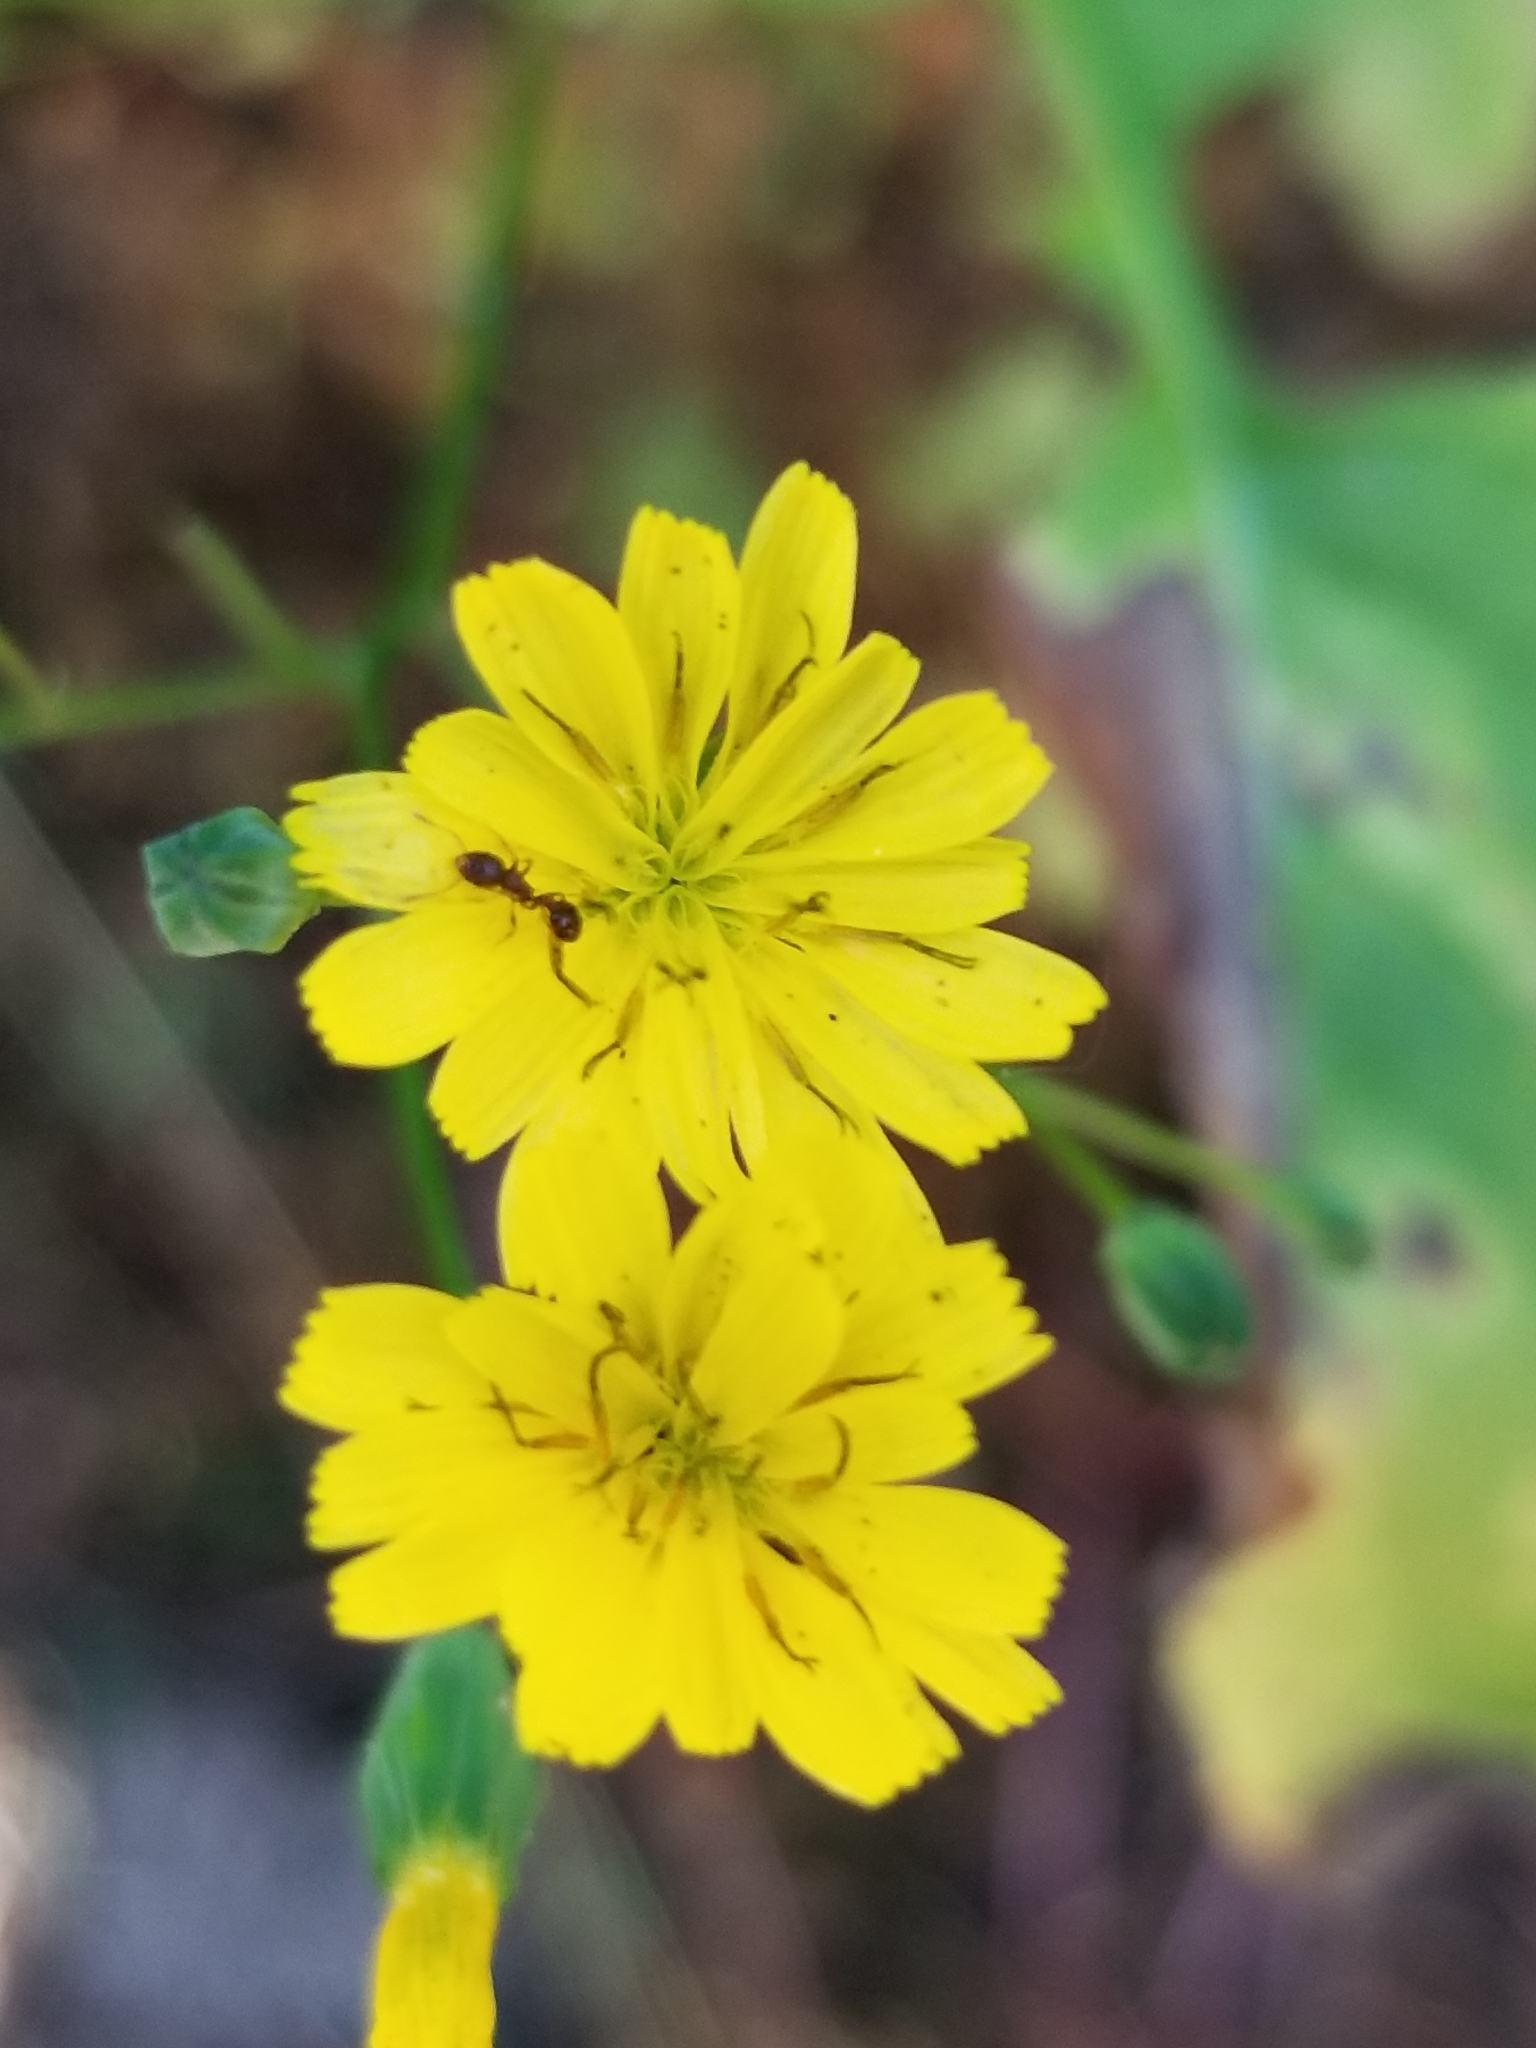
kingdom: Plantae
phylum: Tracheophyta
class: Magnoliopsida
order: Asterales
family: Asteraceae
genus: Lapsana
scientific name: Lapsana communis
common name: Nipplewort
